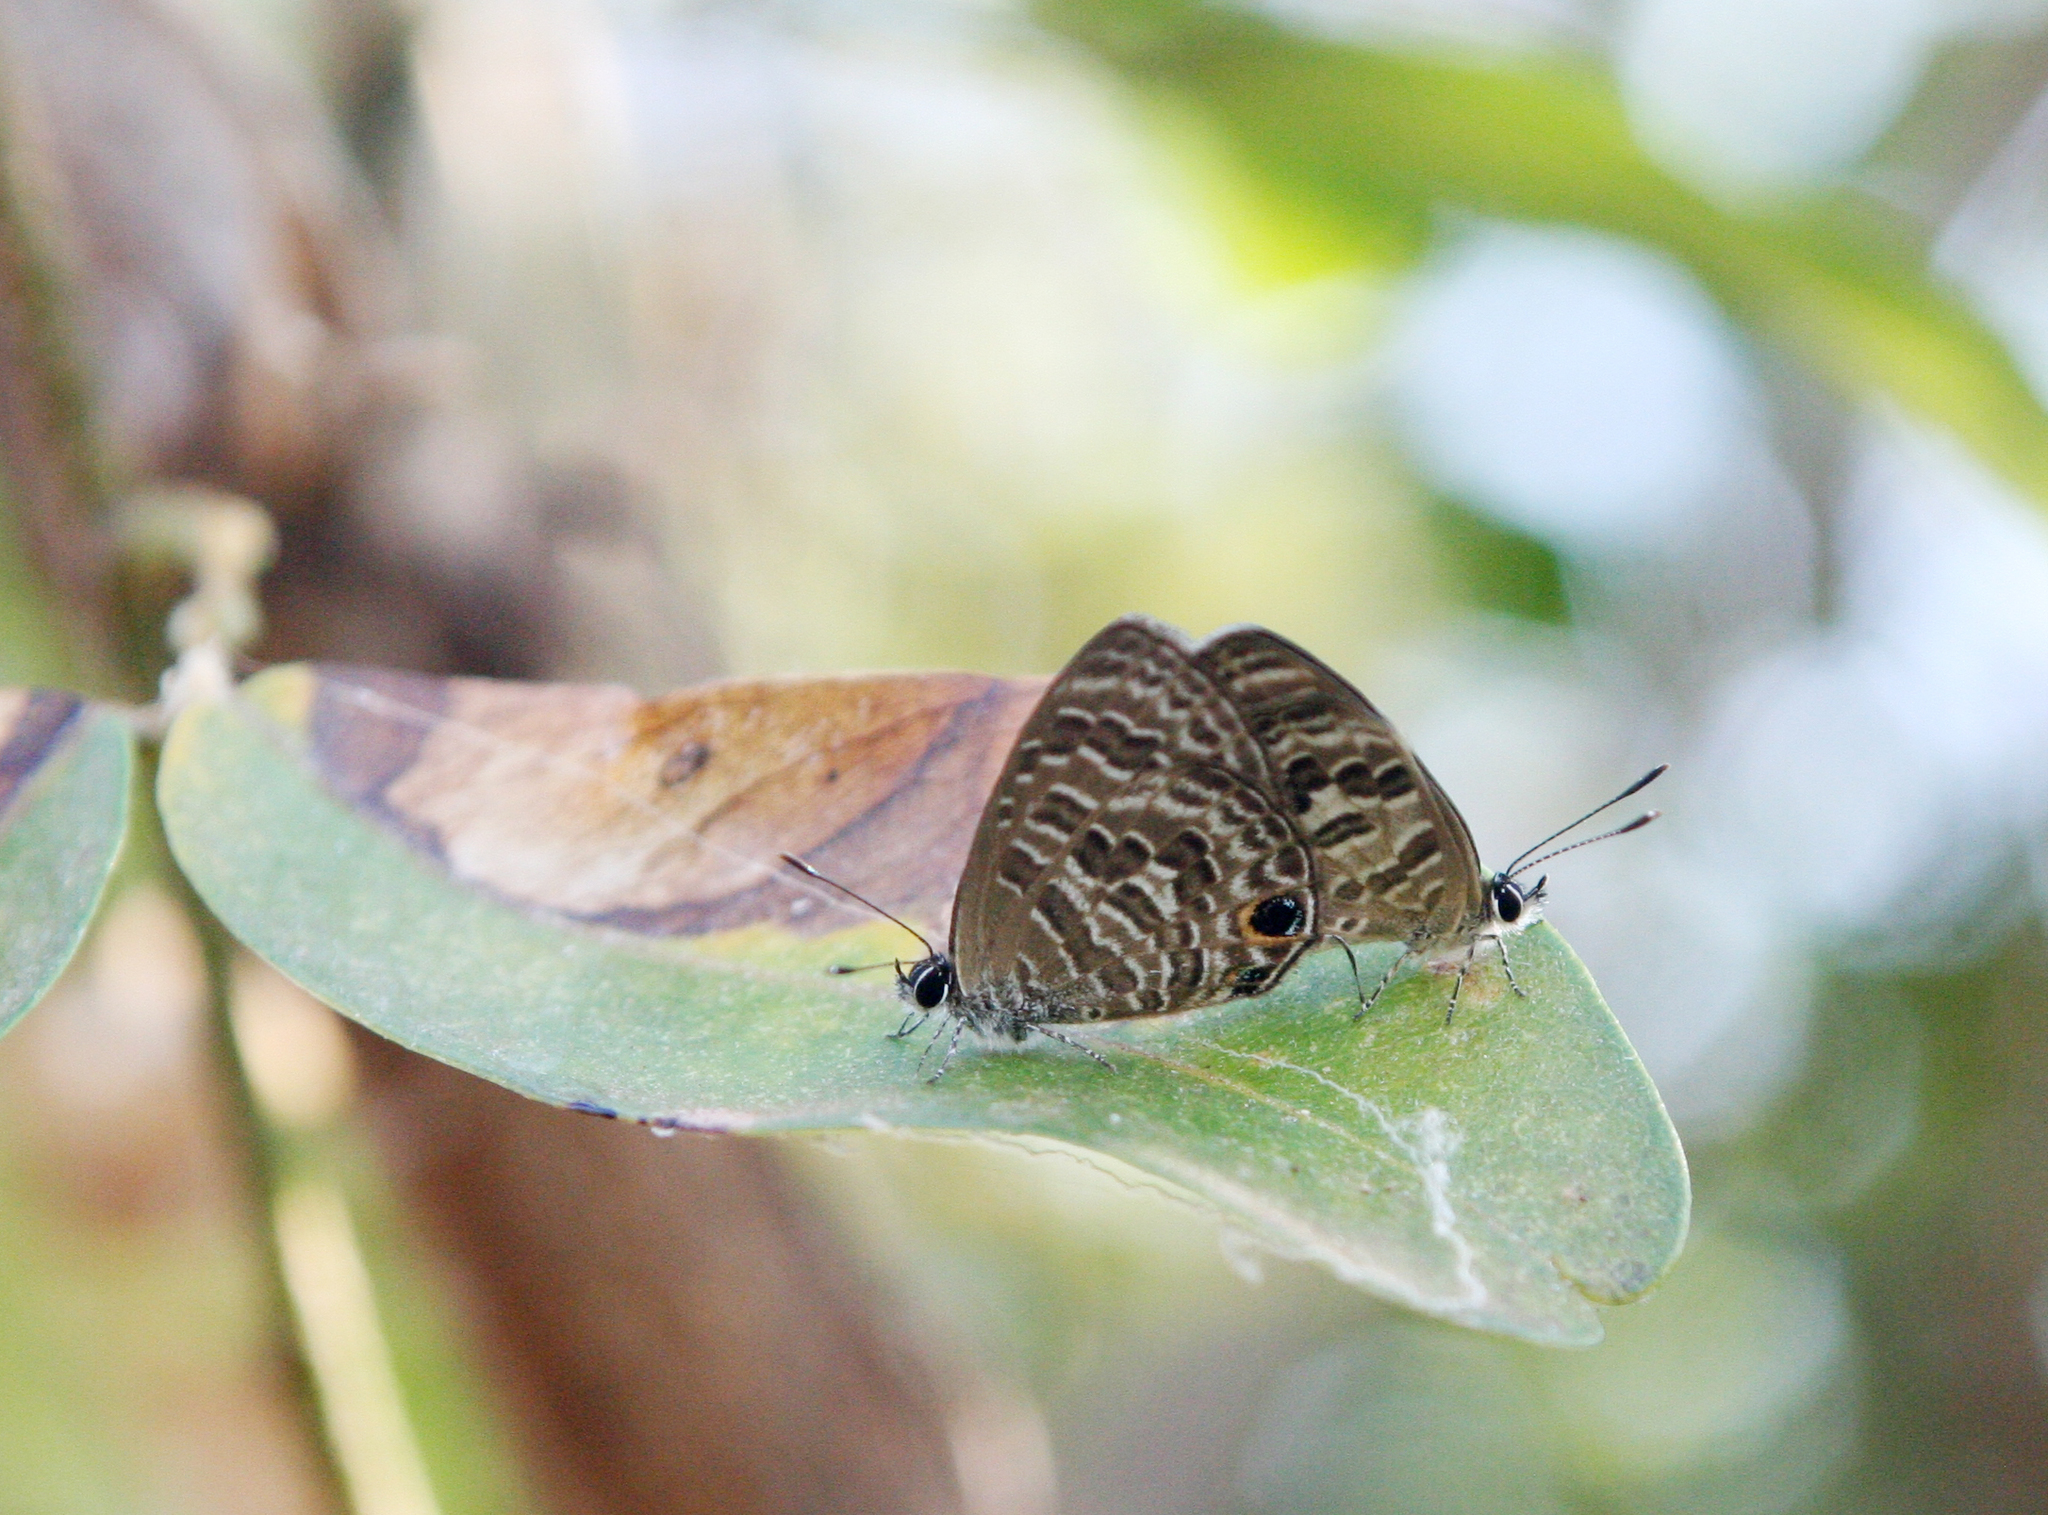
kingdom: Animalia
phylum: Arthropoda
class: Insecta
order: Lepidoptera
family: Lycaenidae
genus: Prosotas
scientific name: Prosotas aluta
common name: Barred lineblue
